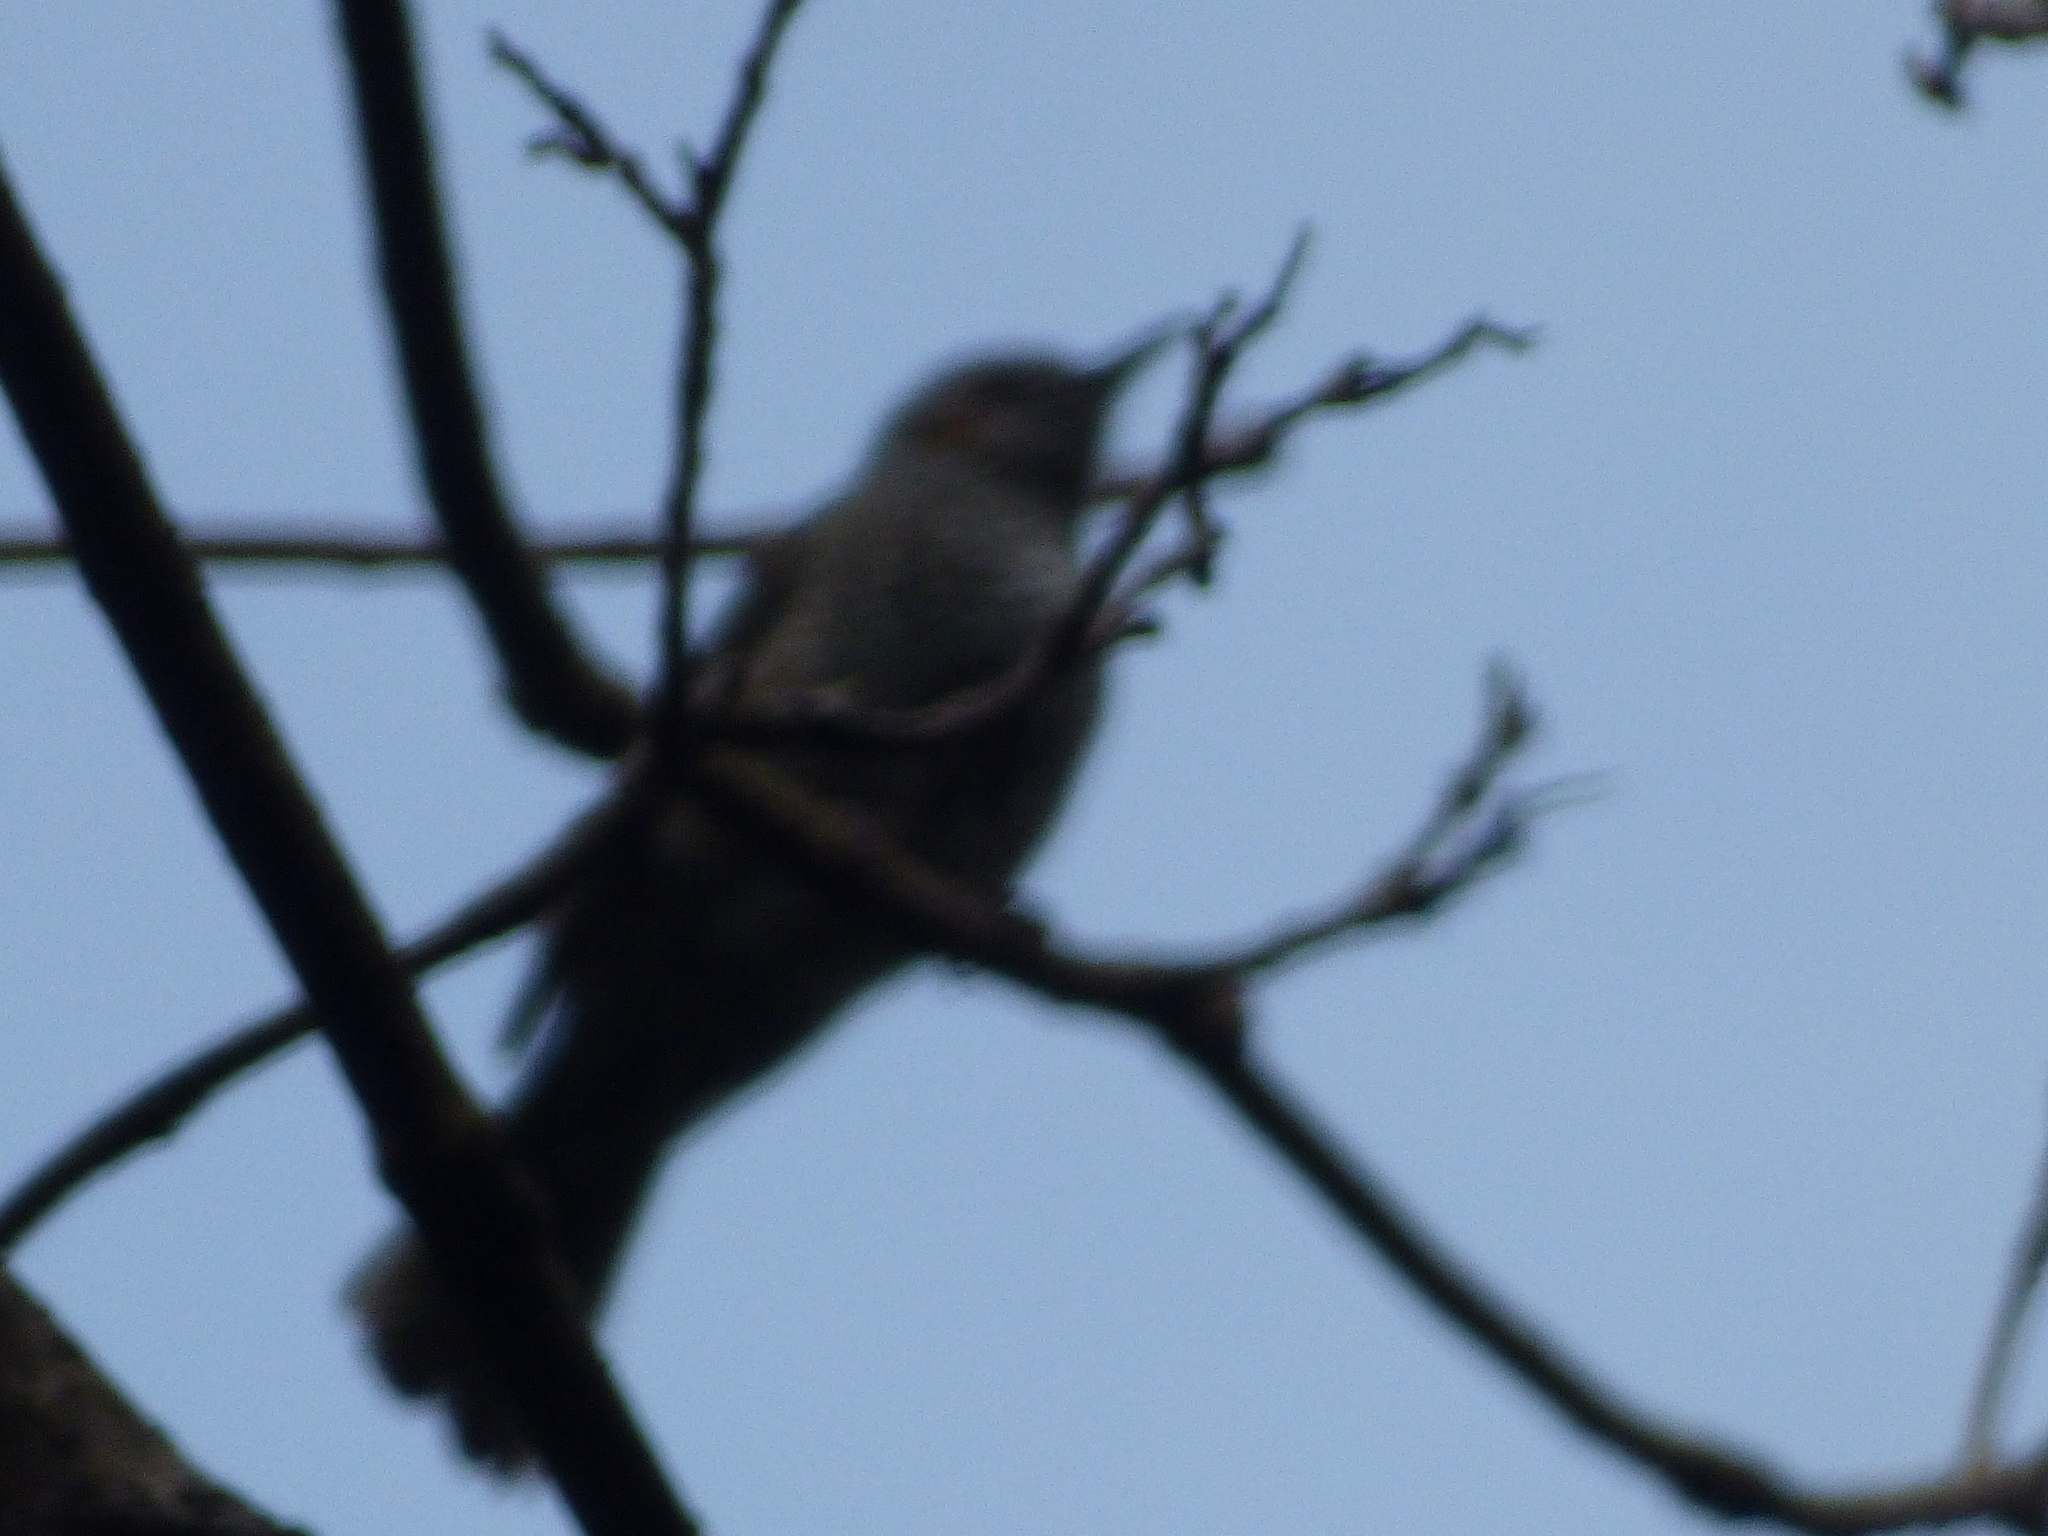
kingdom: Animalia
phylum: Chordata
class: Aves
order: Passeriformes
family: Pycnonotidae
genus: Hypsipetes
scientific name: Hypsipetes amaurotis
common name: Brown-eared bulbul
